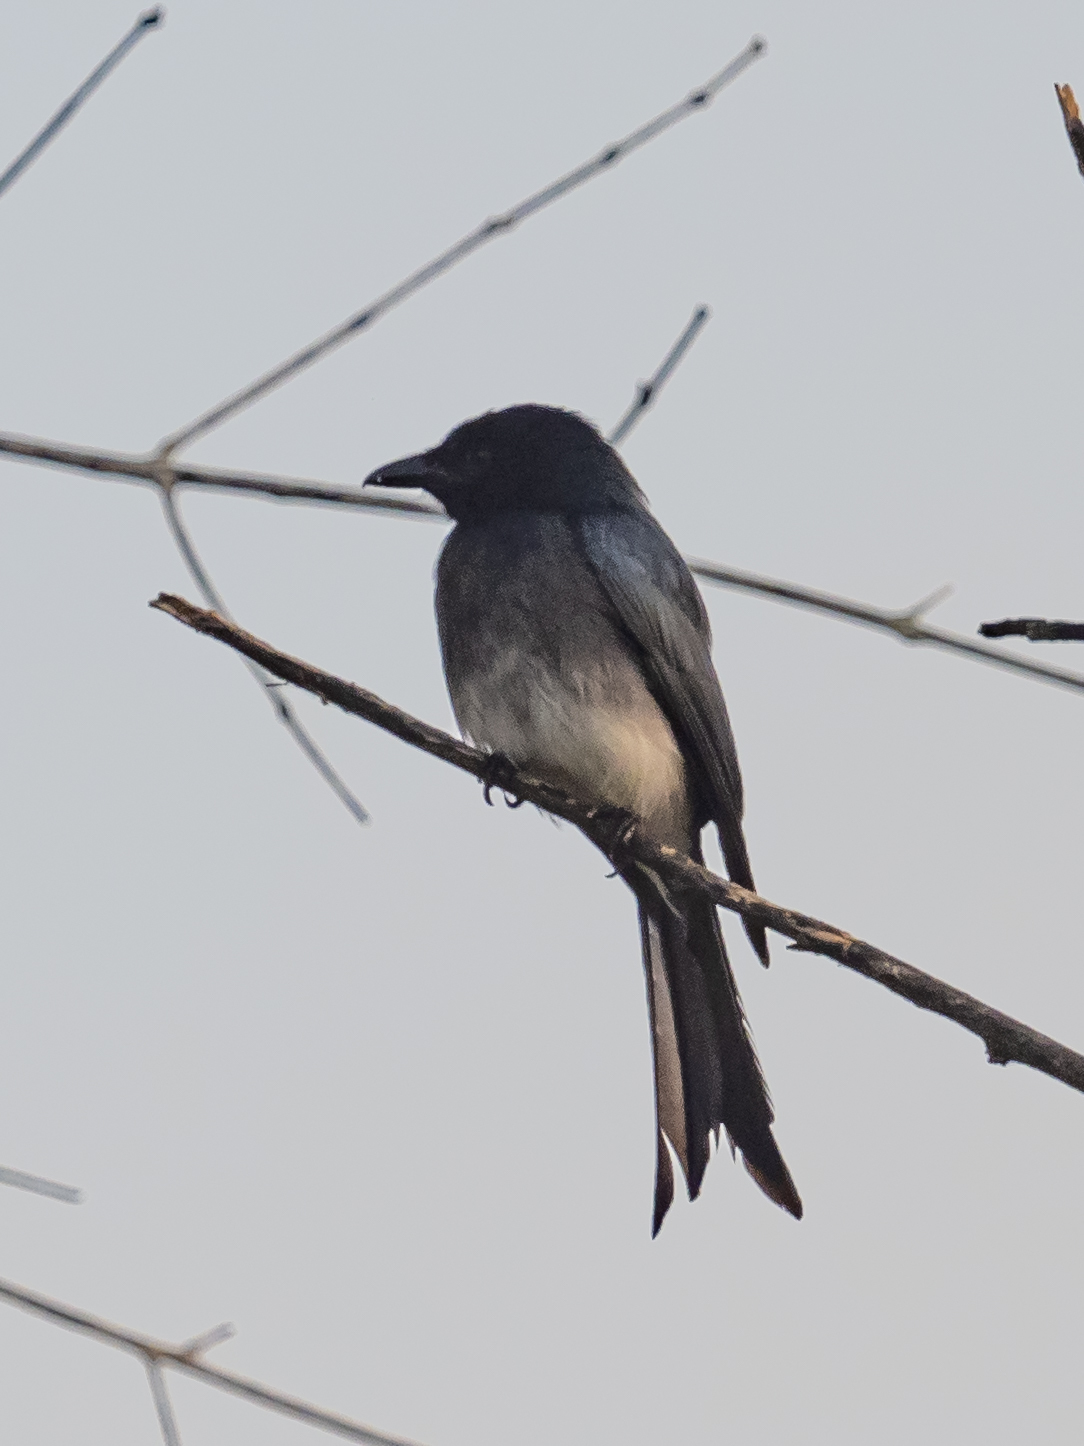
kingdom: Animalia
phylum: Chordata
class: Aves
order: Passeriformes
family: Dicruridae
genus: Dicrurus
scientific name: Dicrurus caerulescens
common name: White-bellied drongo
